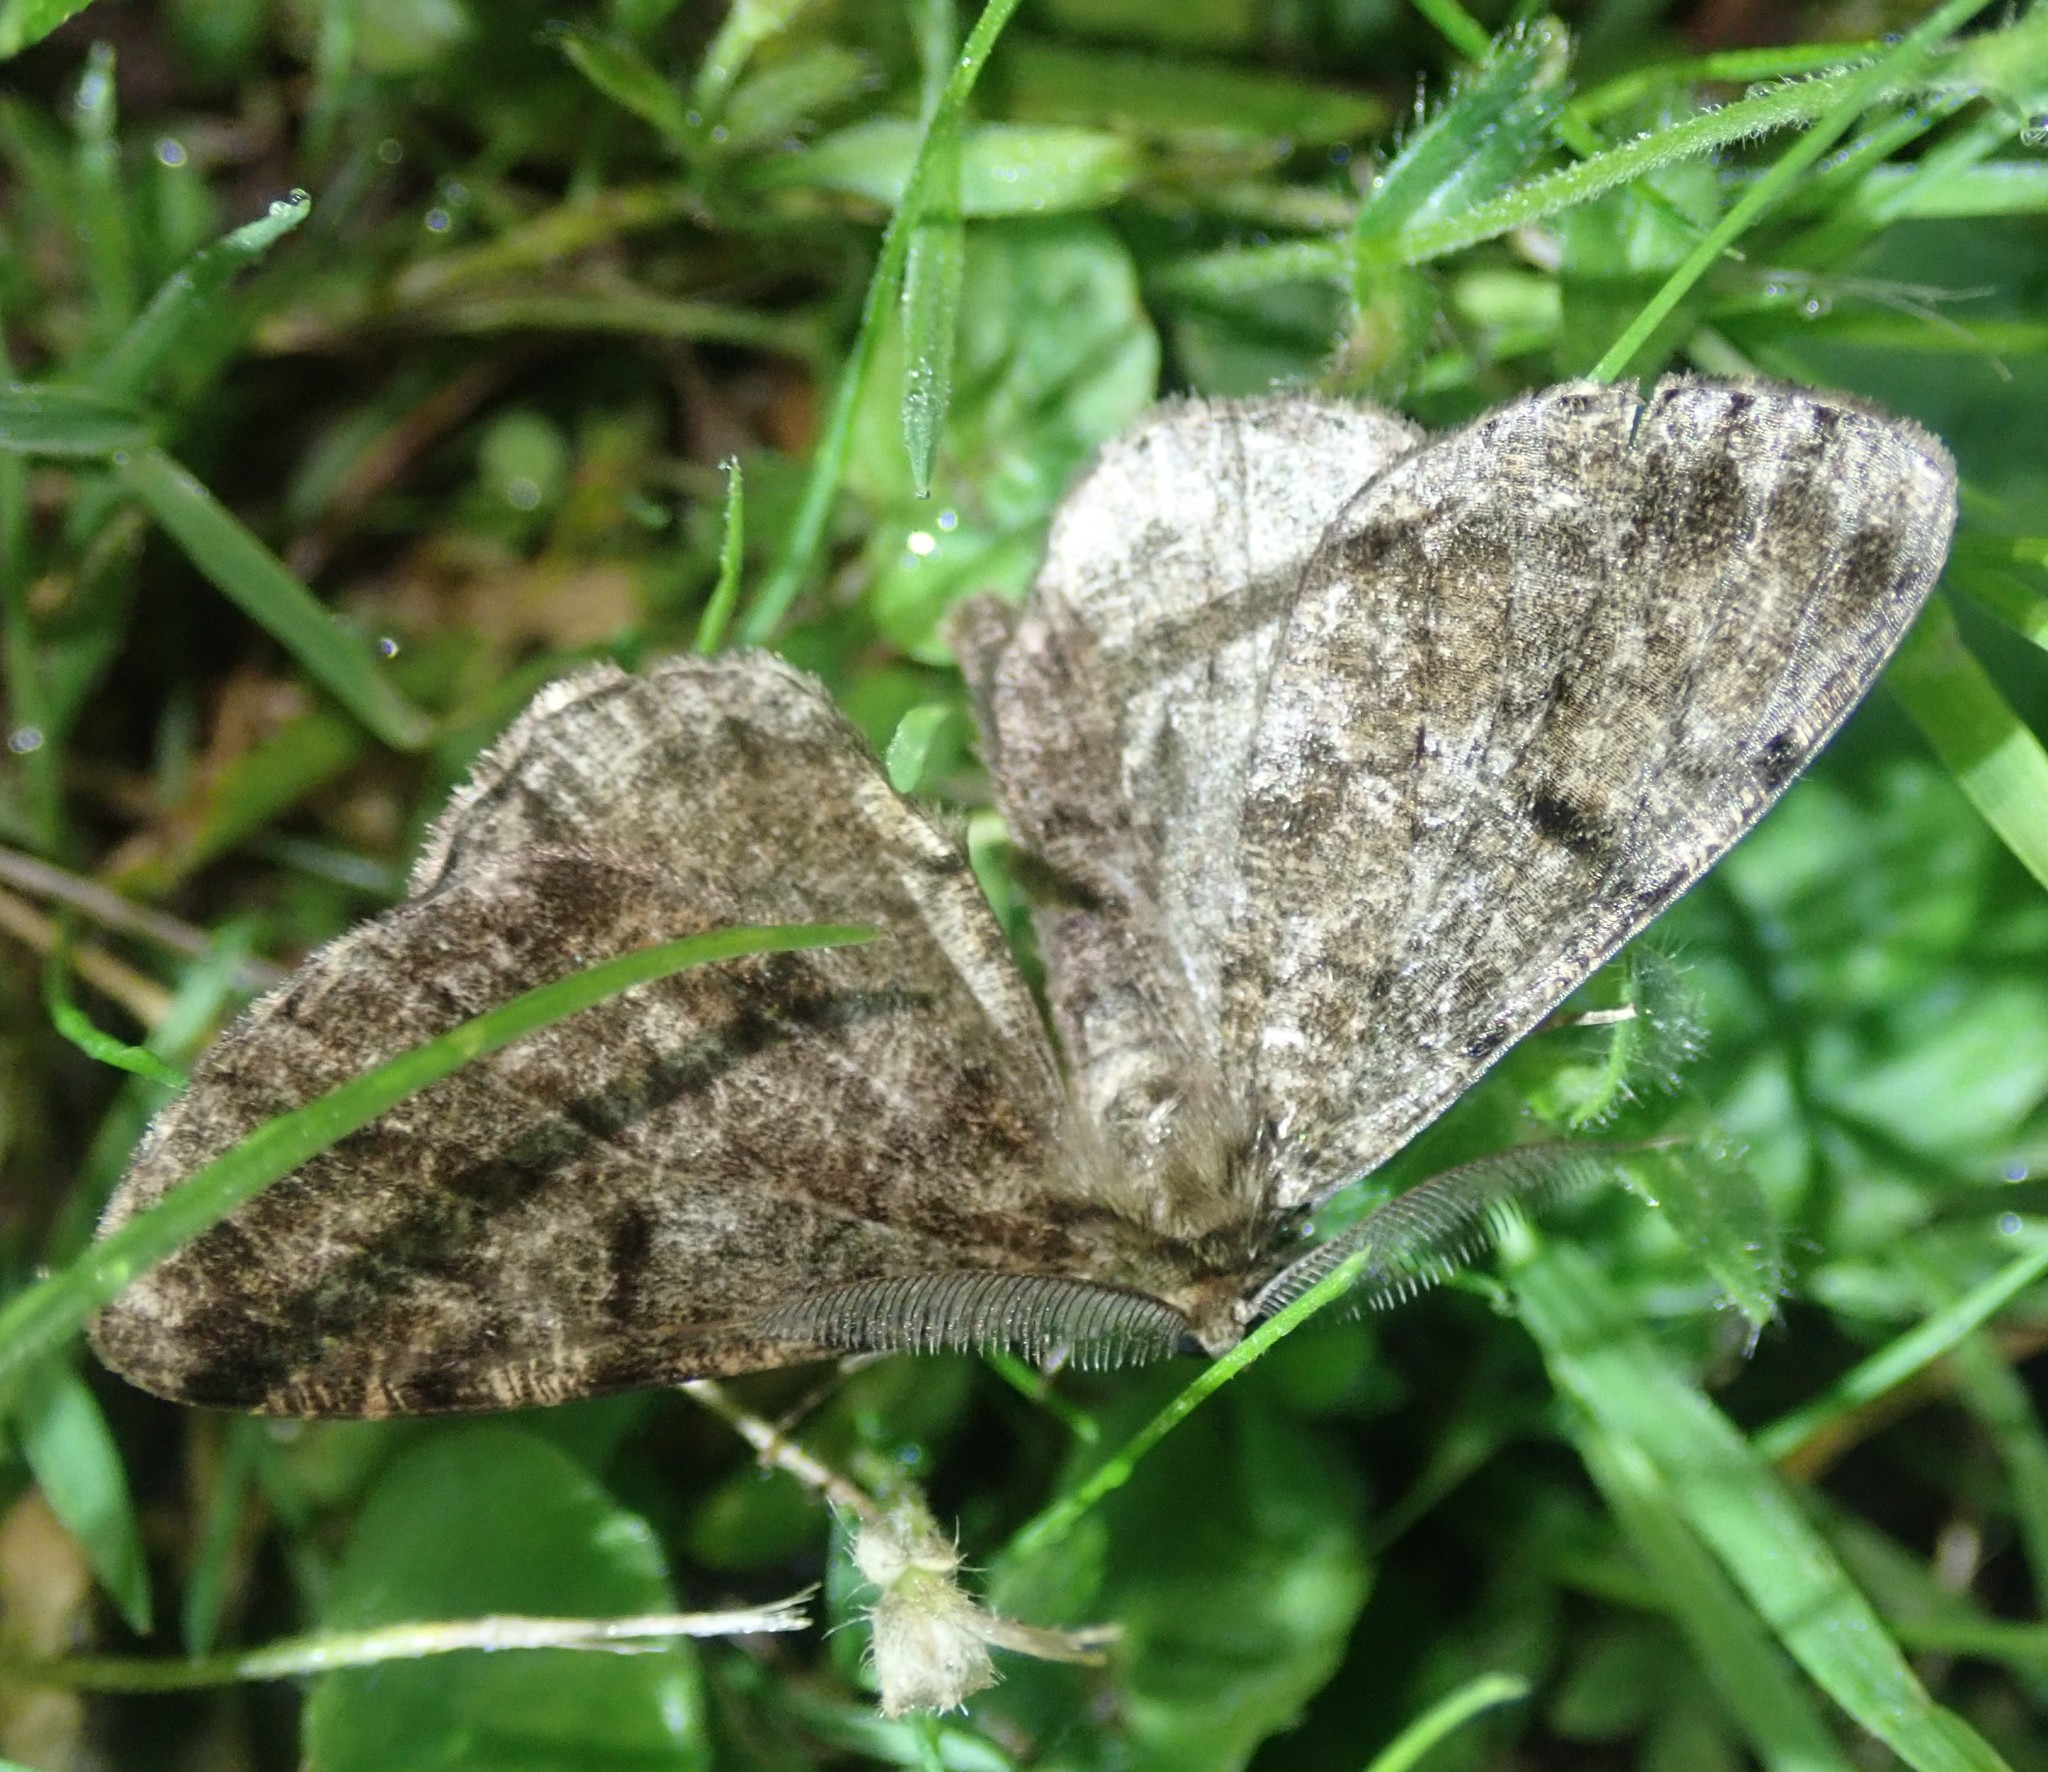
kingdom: Animalia
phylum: Arthropoda
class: Insecta
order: Lepidoptera
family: Geometridae
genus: Deileptenia
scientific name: Deileptenia ribeata
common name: Satin beauty
